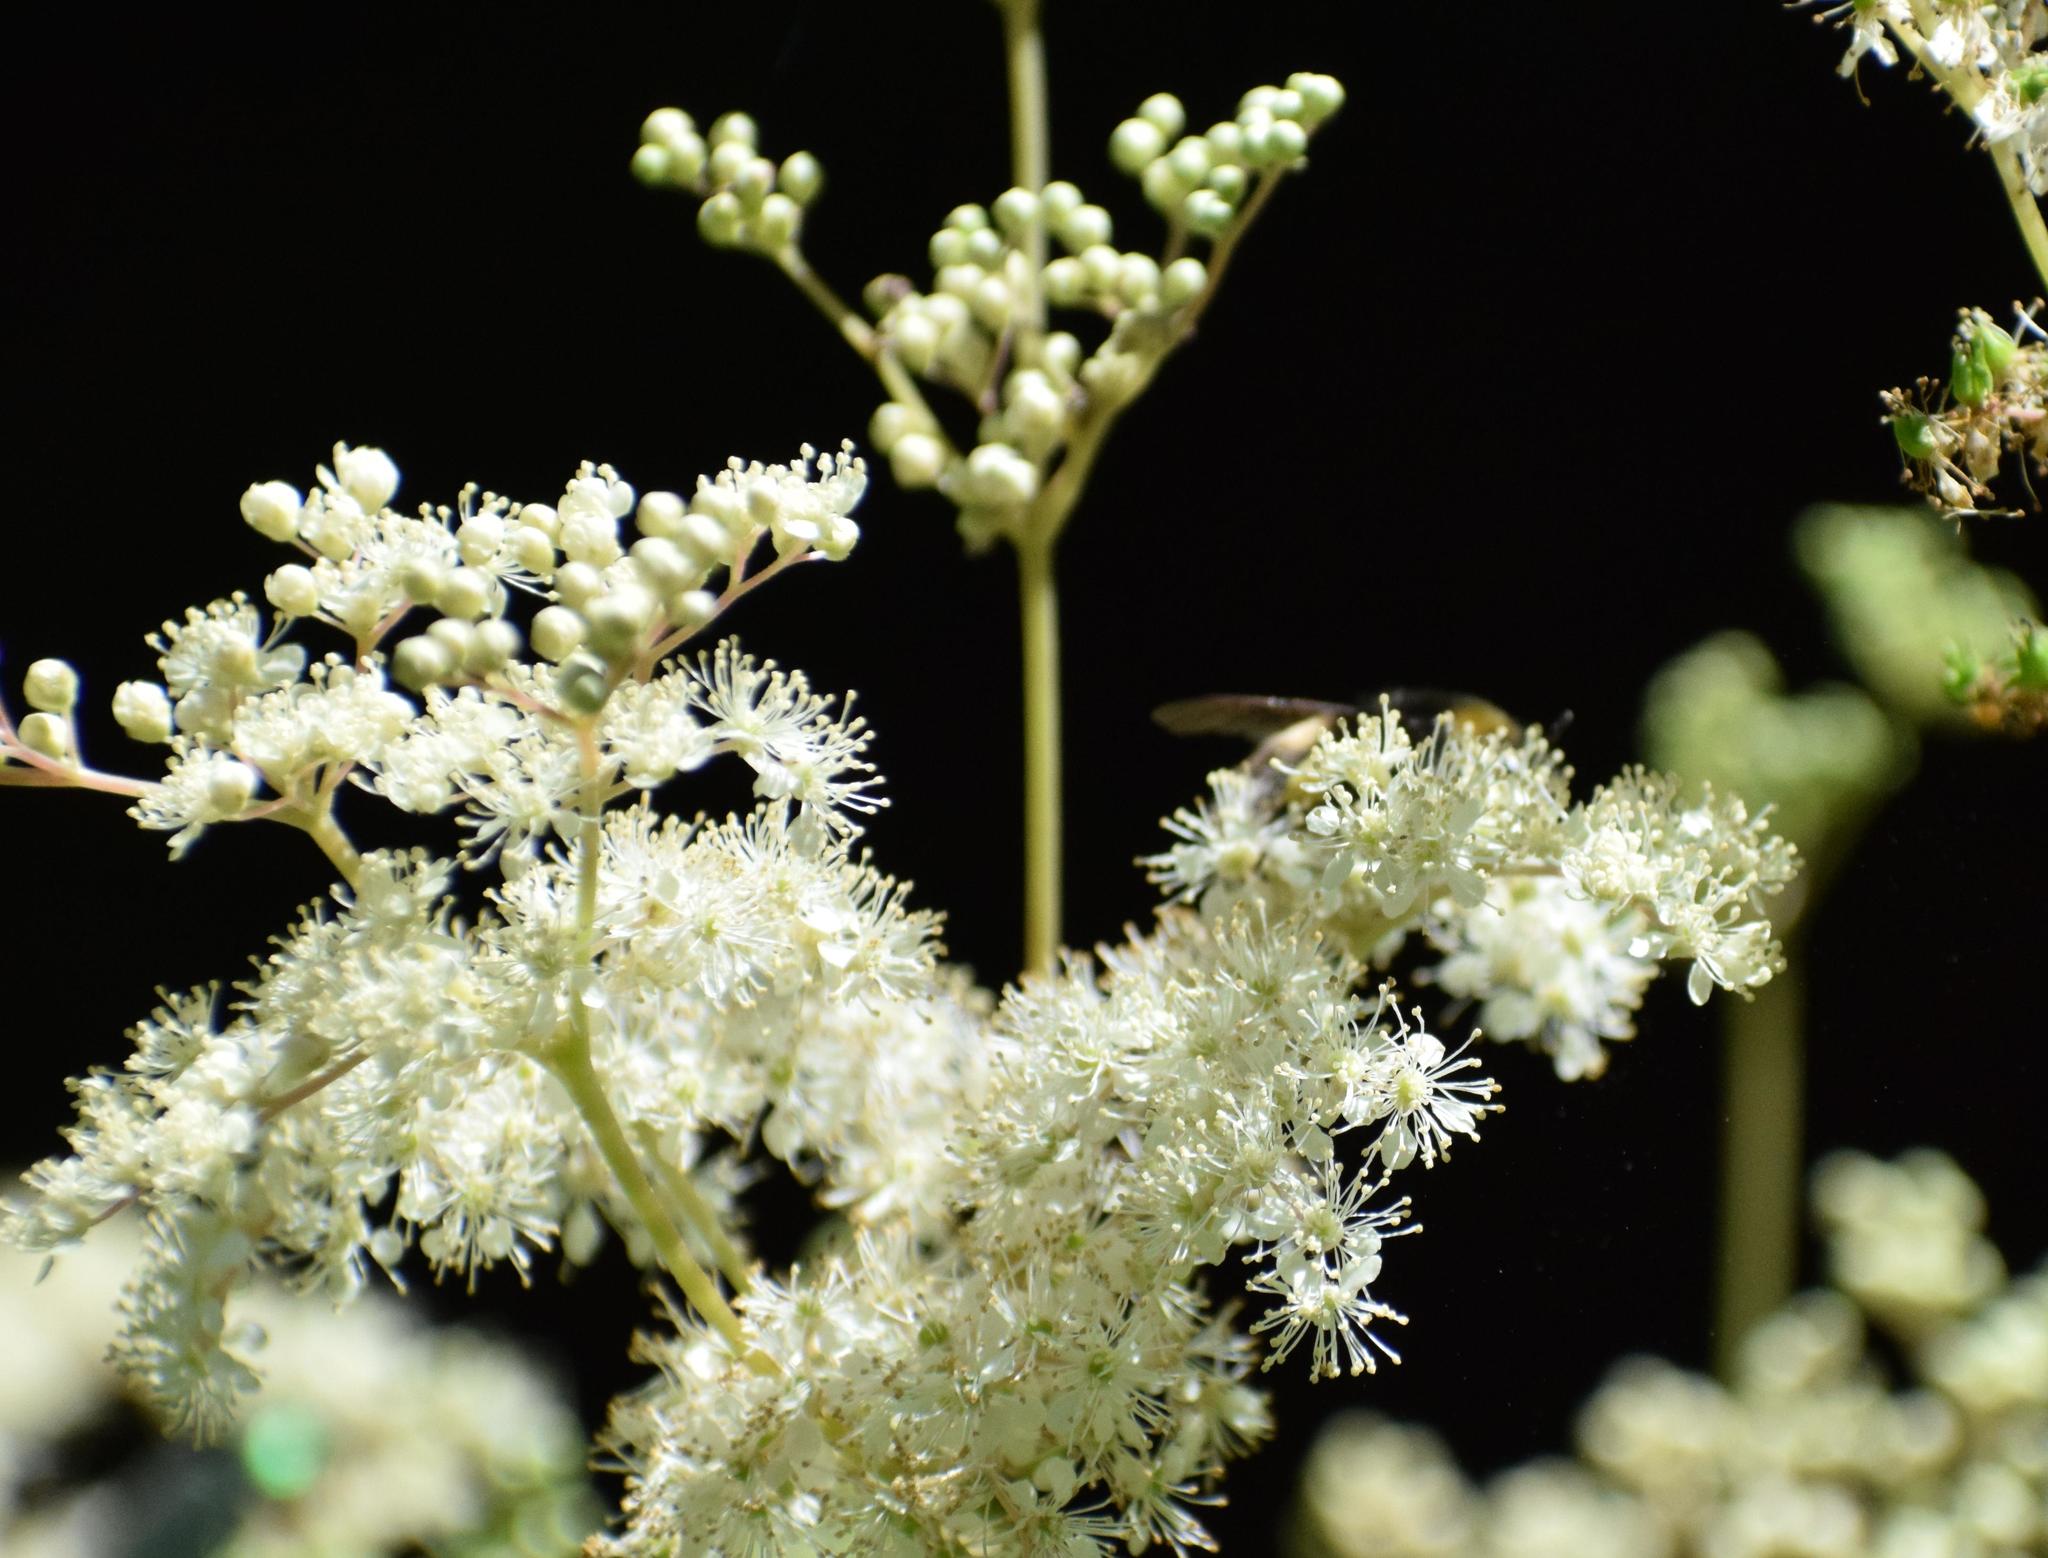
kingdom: Plantae
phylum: Tracheophyta
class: Magnoliopsida
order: Rosales
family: Rosaceae
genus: Filipendula
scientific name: Filipendula ulmaria
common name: Meadowsweet
